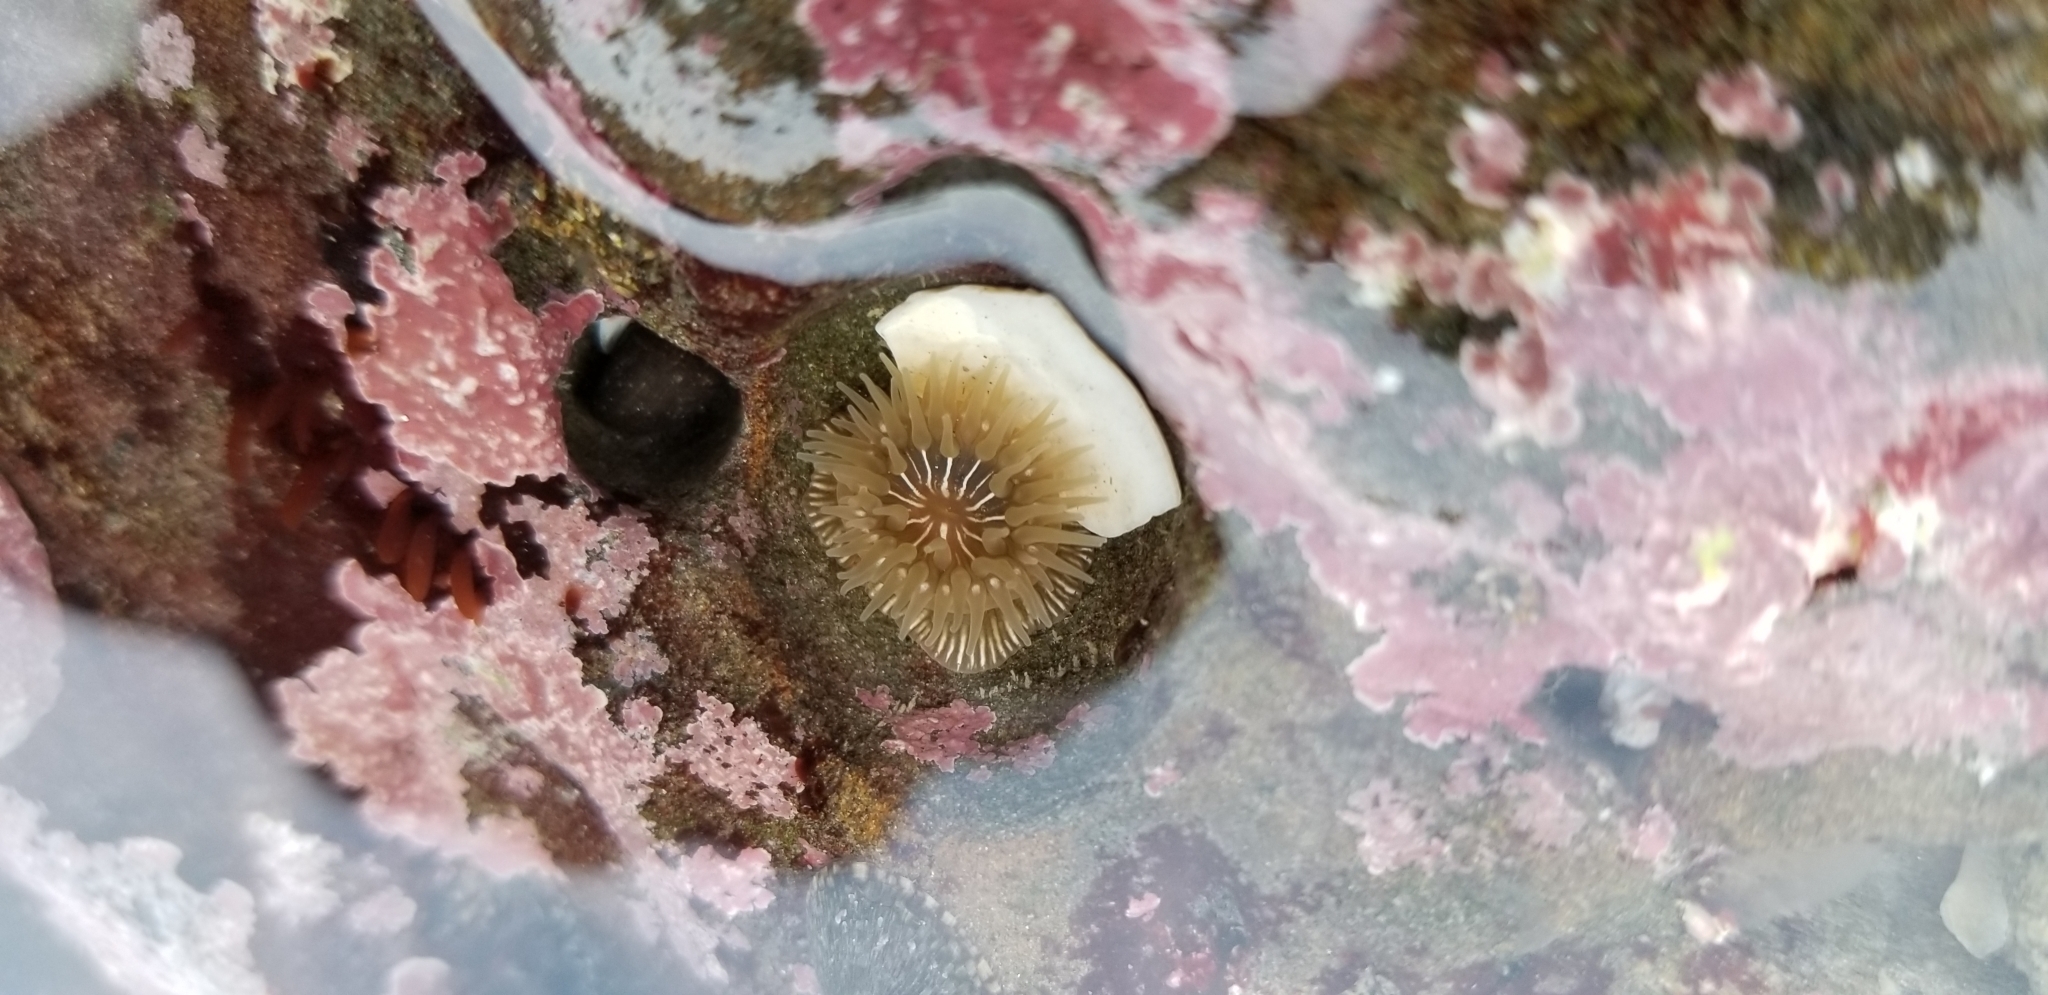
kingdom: Animalia
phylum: Cnidaria
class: Anthozoa
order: Actiniaria
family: Actiniidae
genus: Epiactis
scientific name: Epiactis prolifera
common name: Brooding anemone
